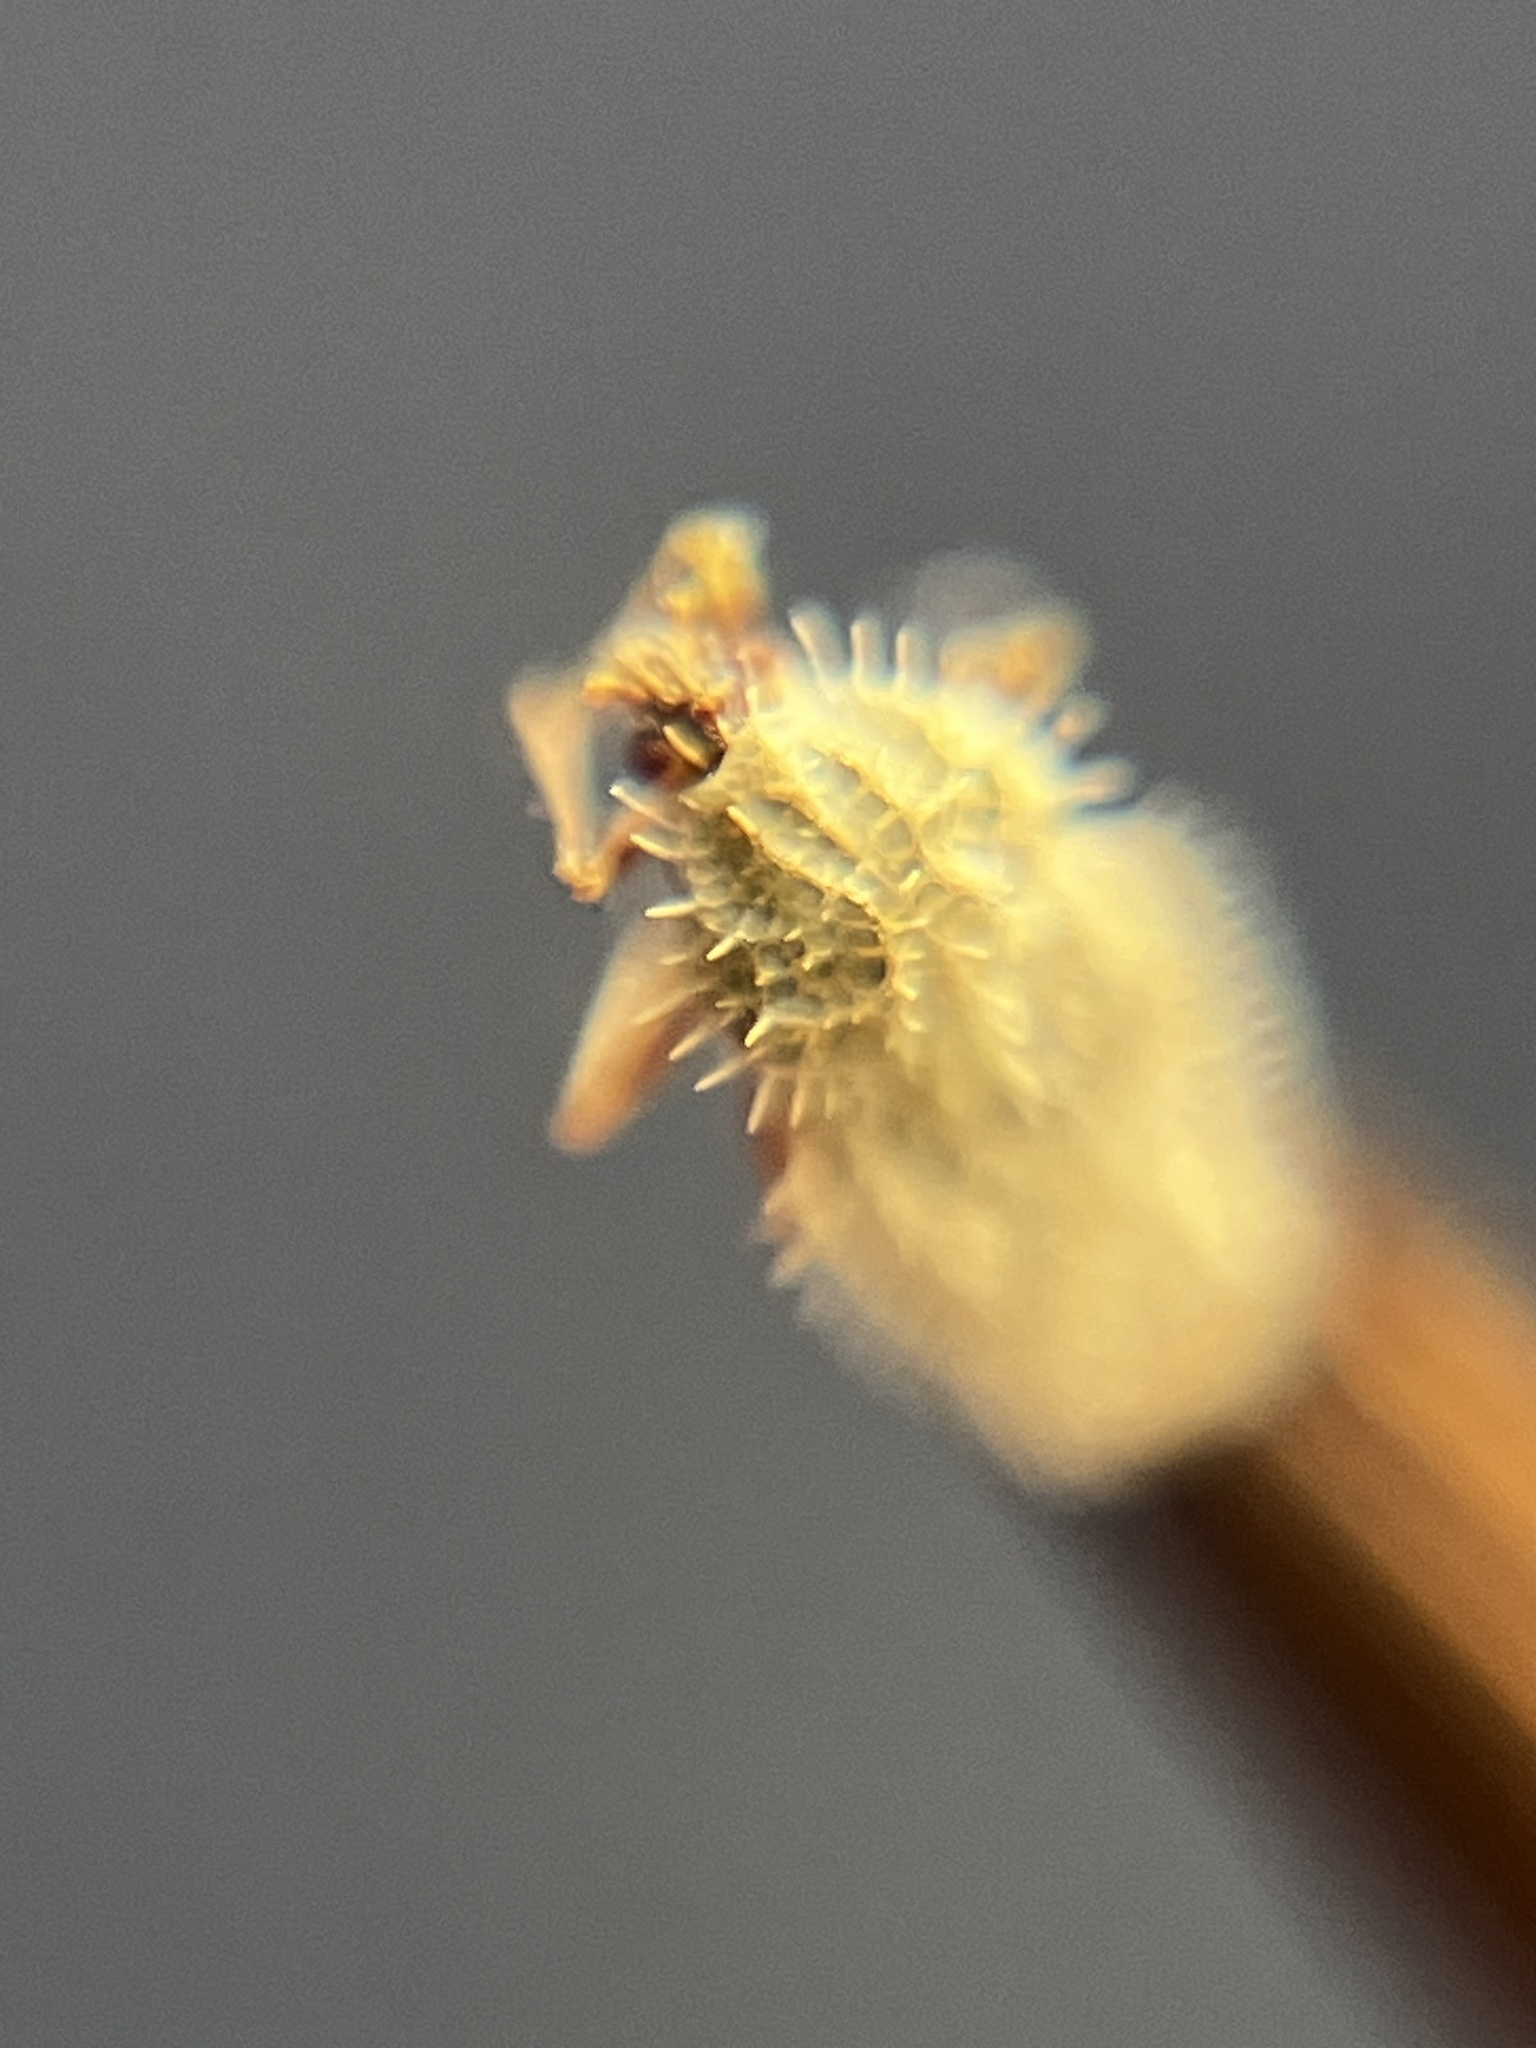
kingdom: Animalia
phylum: Arthropoda
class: Insecta
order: Hemiptera
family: Tingidae
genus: Urentius
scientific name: Urentius euonymus
